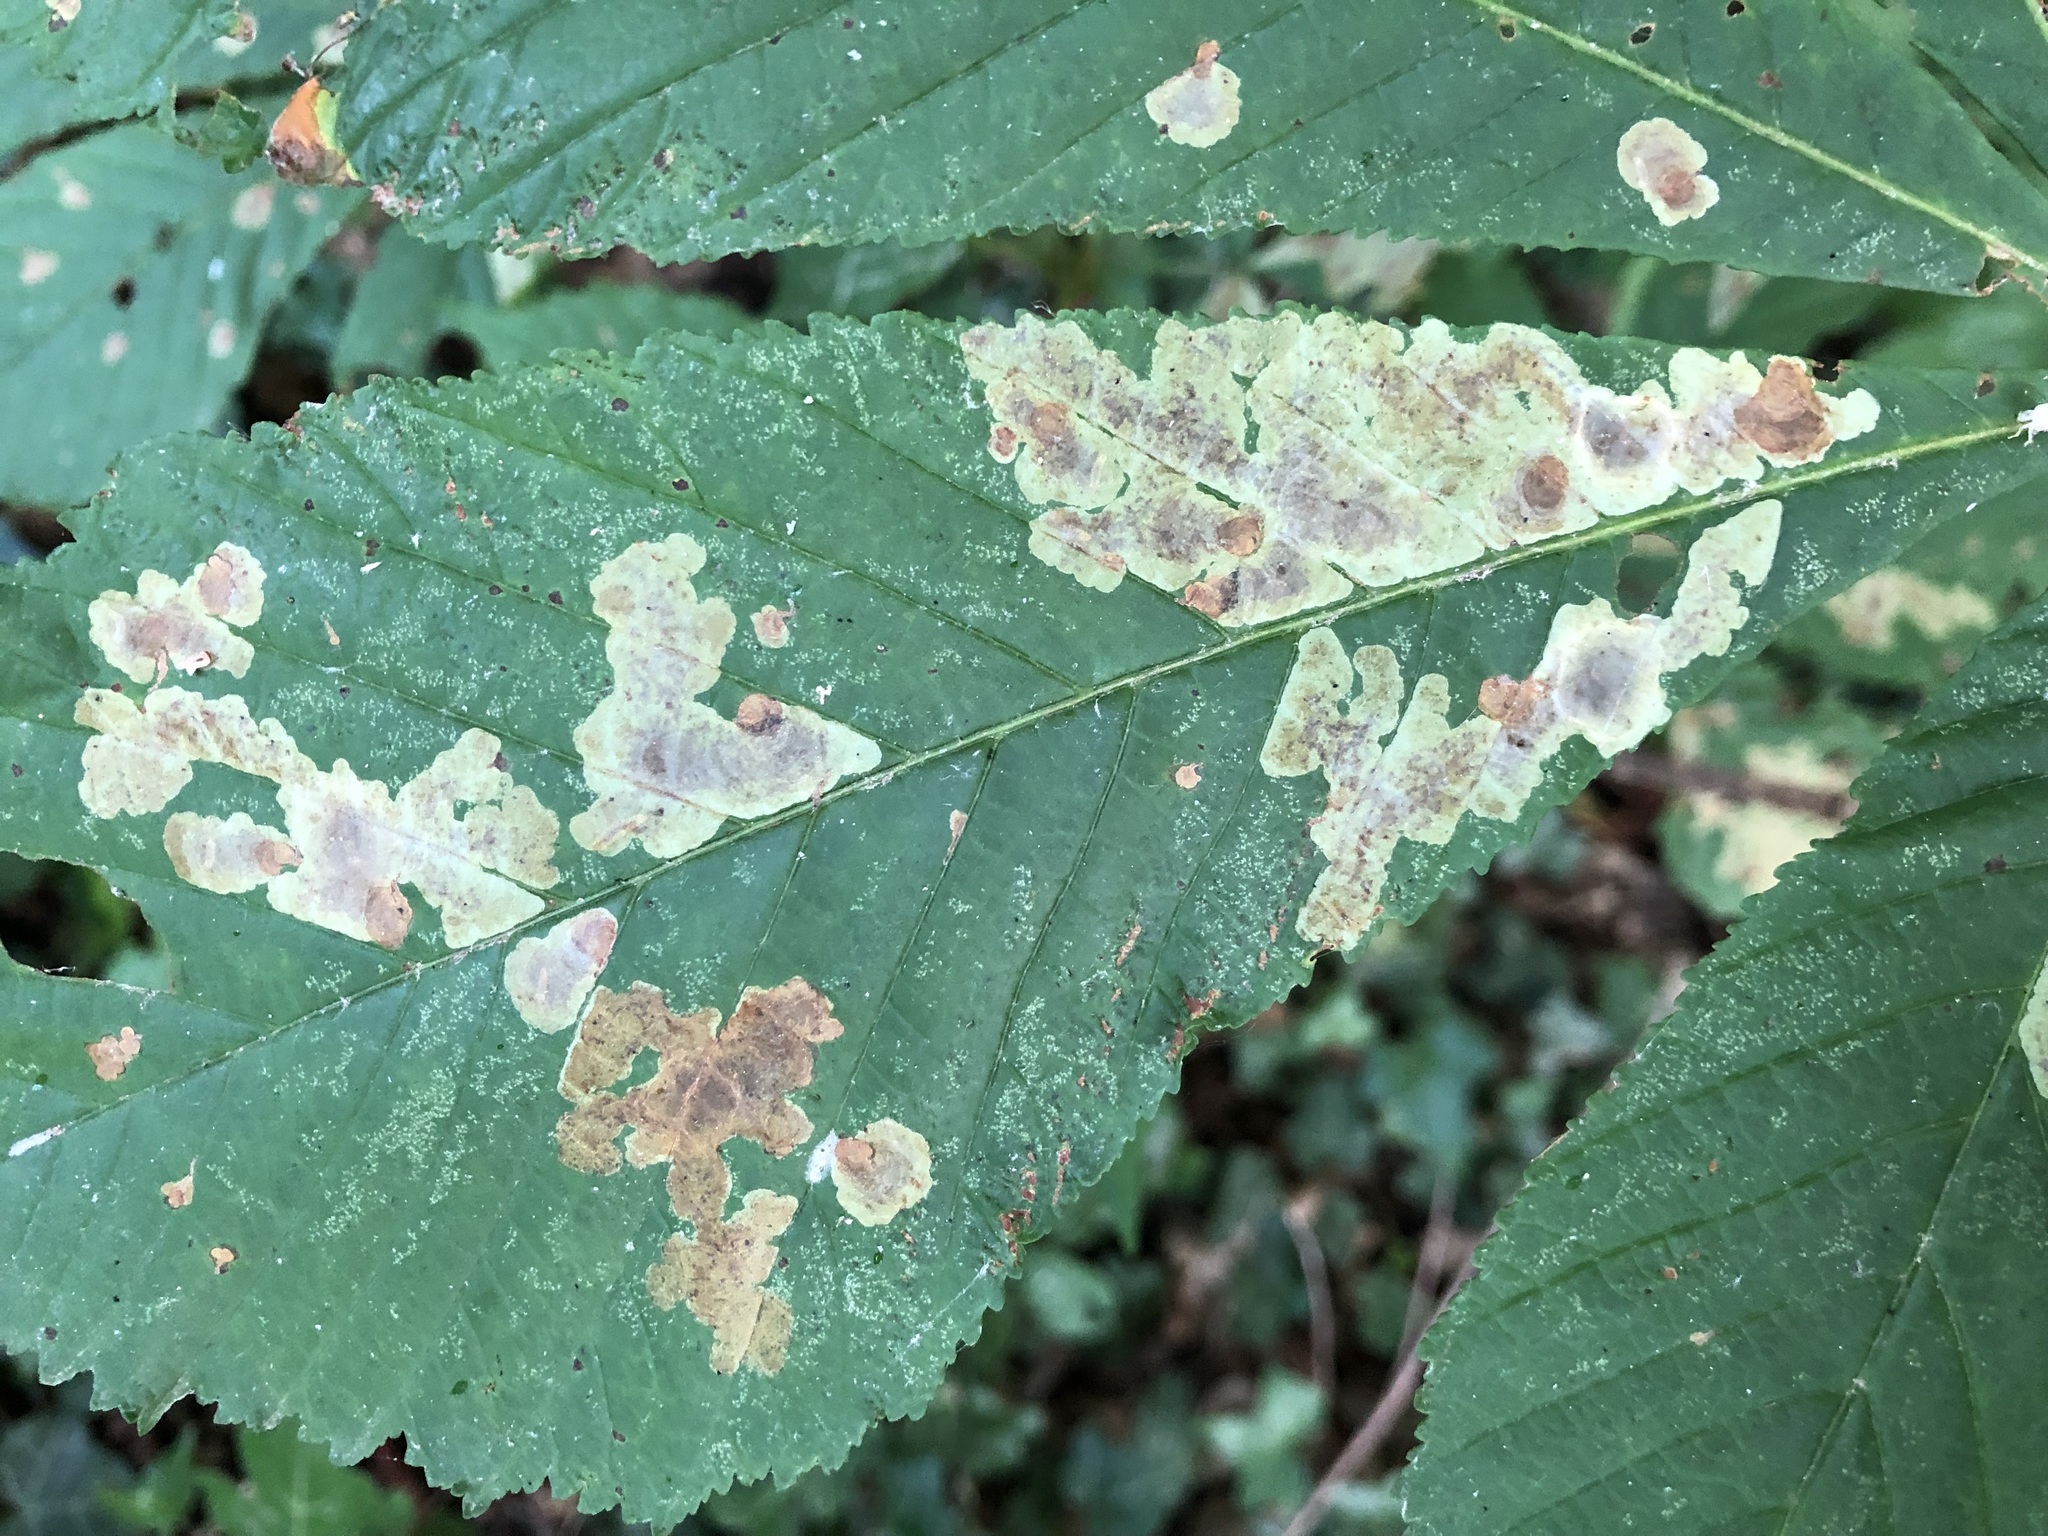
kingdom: Animalia
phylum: Arthropoda
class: Insecta
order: Lepidoptera
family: Gracillariidae
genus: Cameraria
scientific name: Cameraria ohridella
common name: Horse-chestnut leaf-miner
